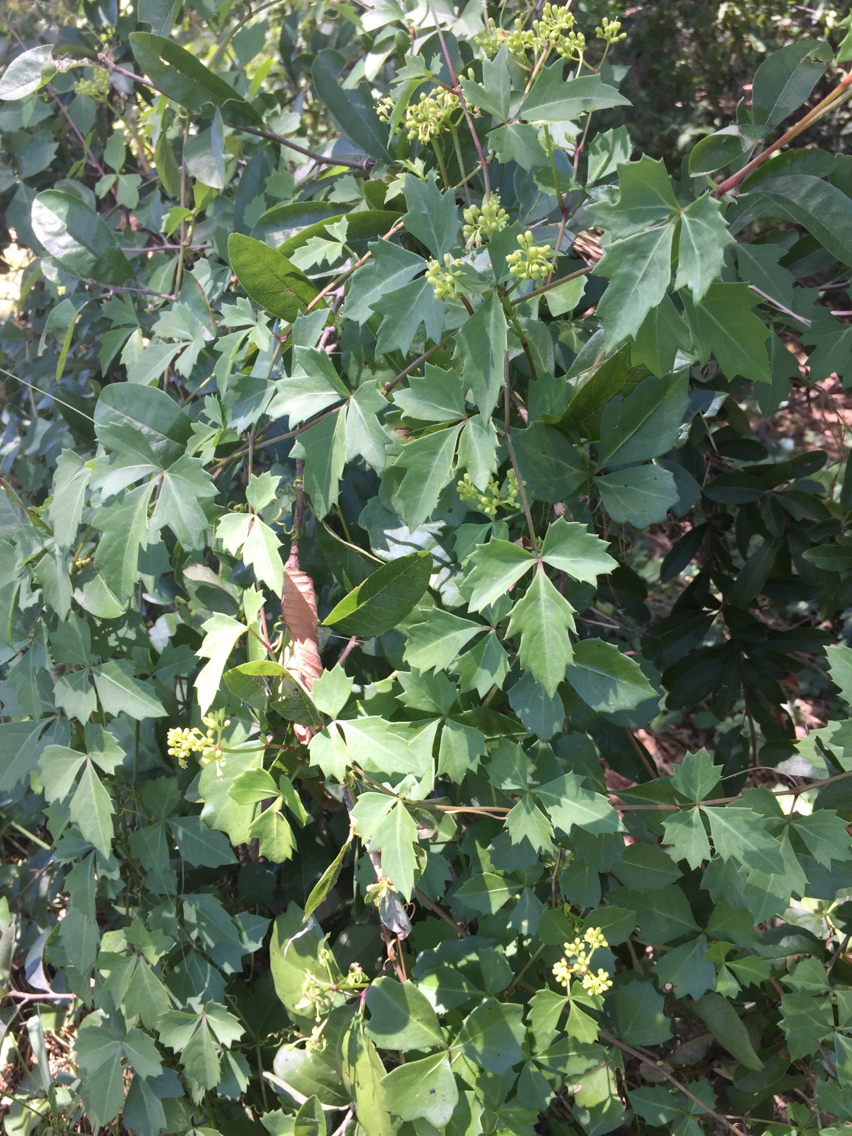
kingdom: Plantae
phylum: Tracheophyta
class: Magnoliopsida
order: Vitales
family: Vitaceae
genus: Cissus
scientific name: Cissus trifoliata
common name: Vine-sorrel
